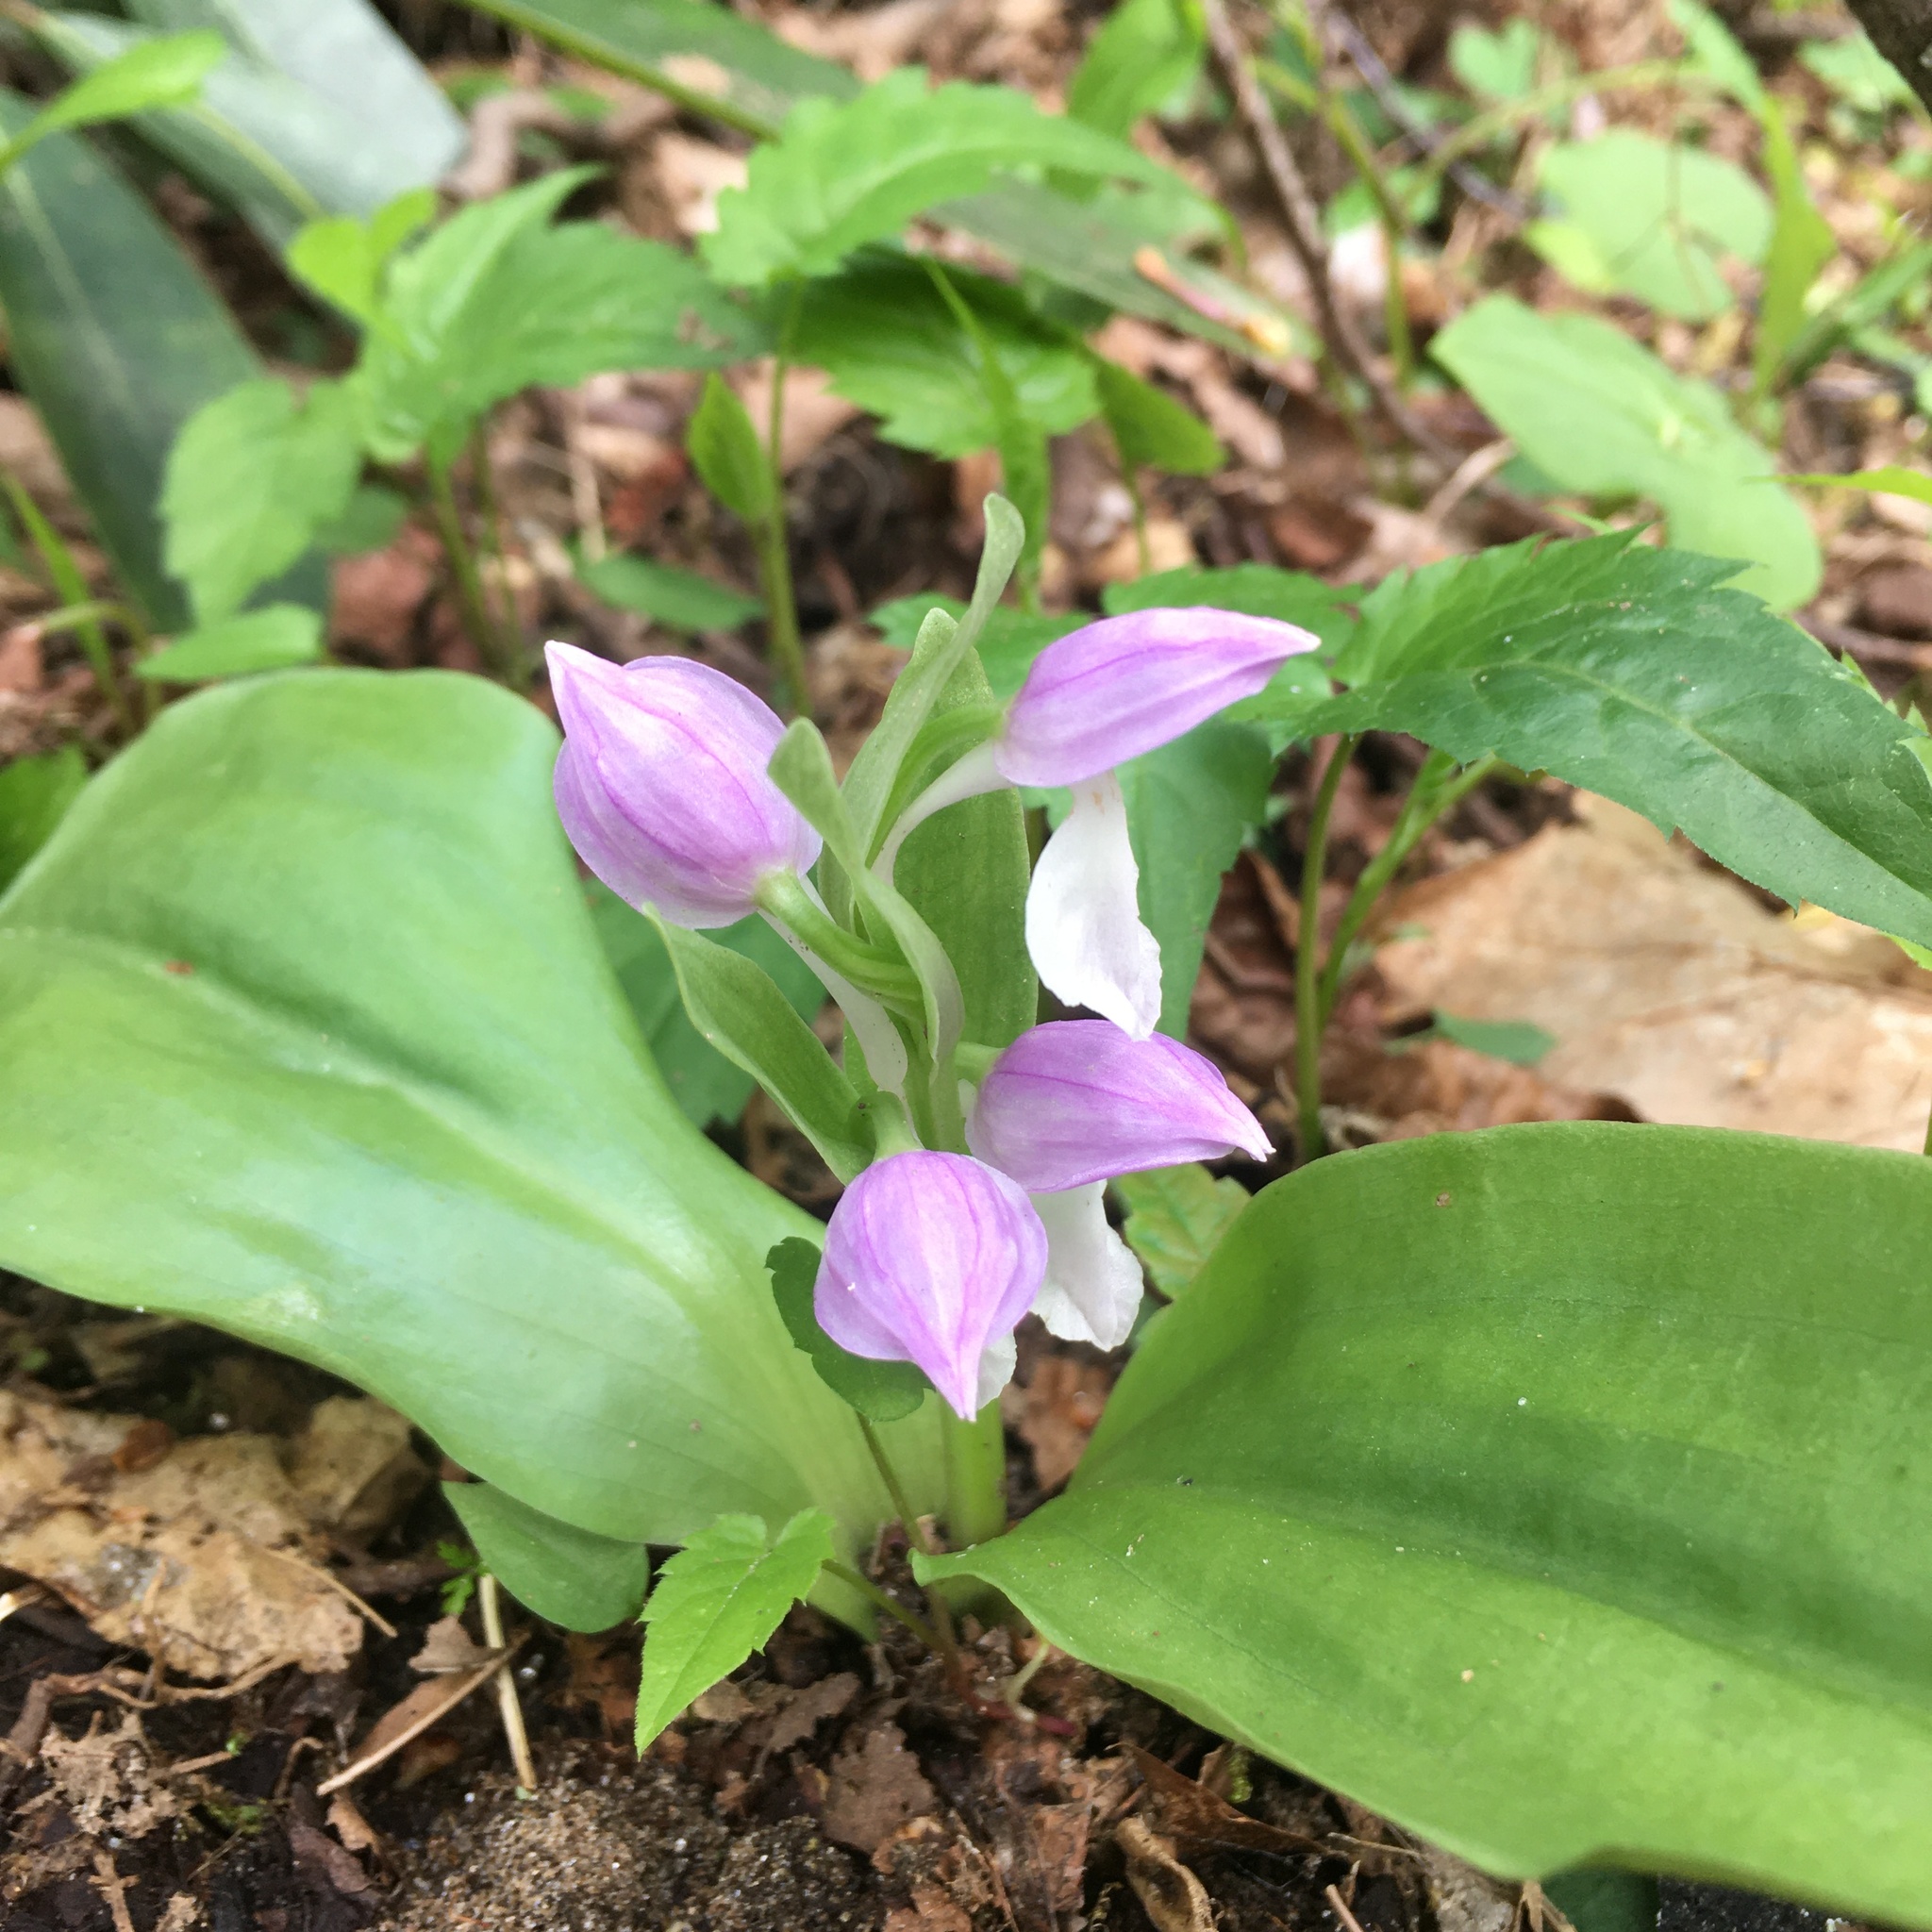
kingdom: Plantae
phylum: Tracheophyta
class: Liliopsida
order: Asparagales
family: Orchidaceae
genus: Galearis
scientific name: Galearis spectabilis
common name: Purple-hooded orchis
